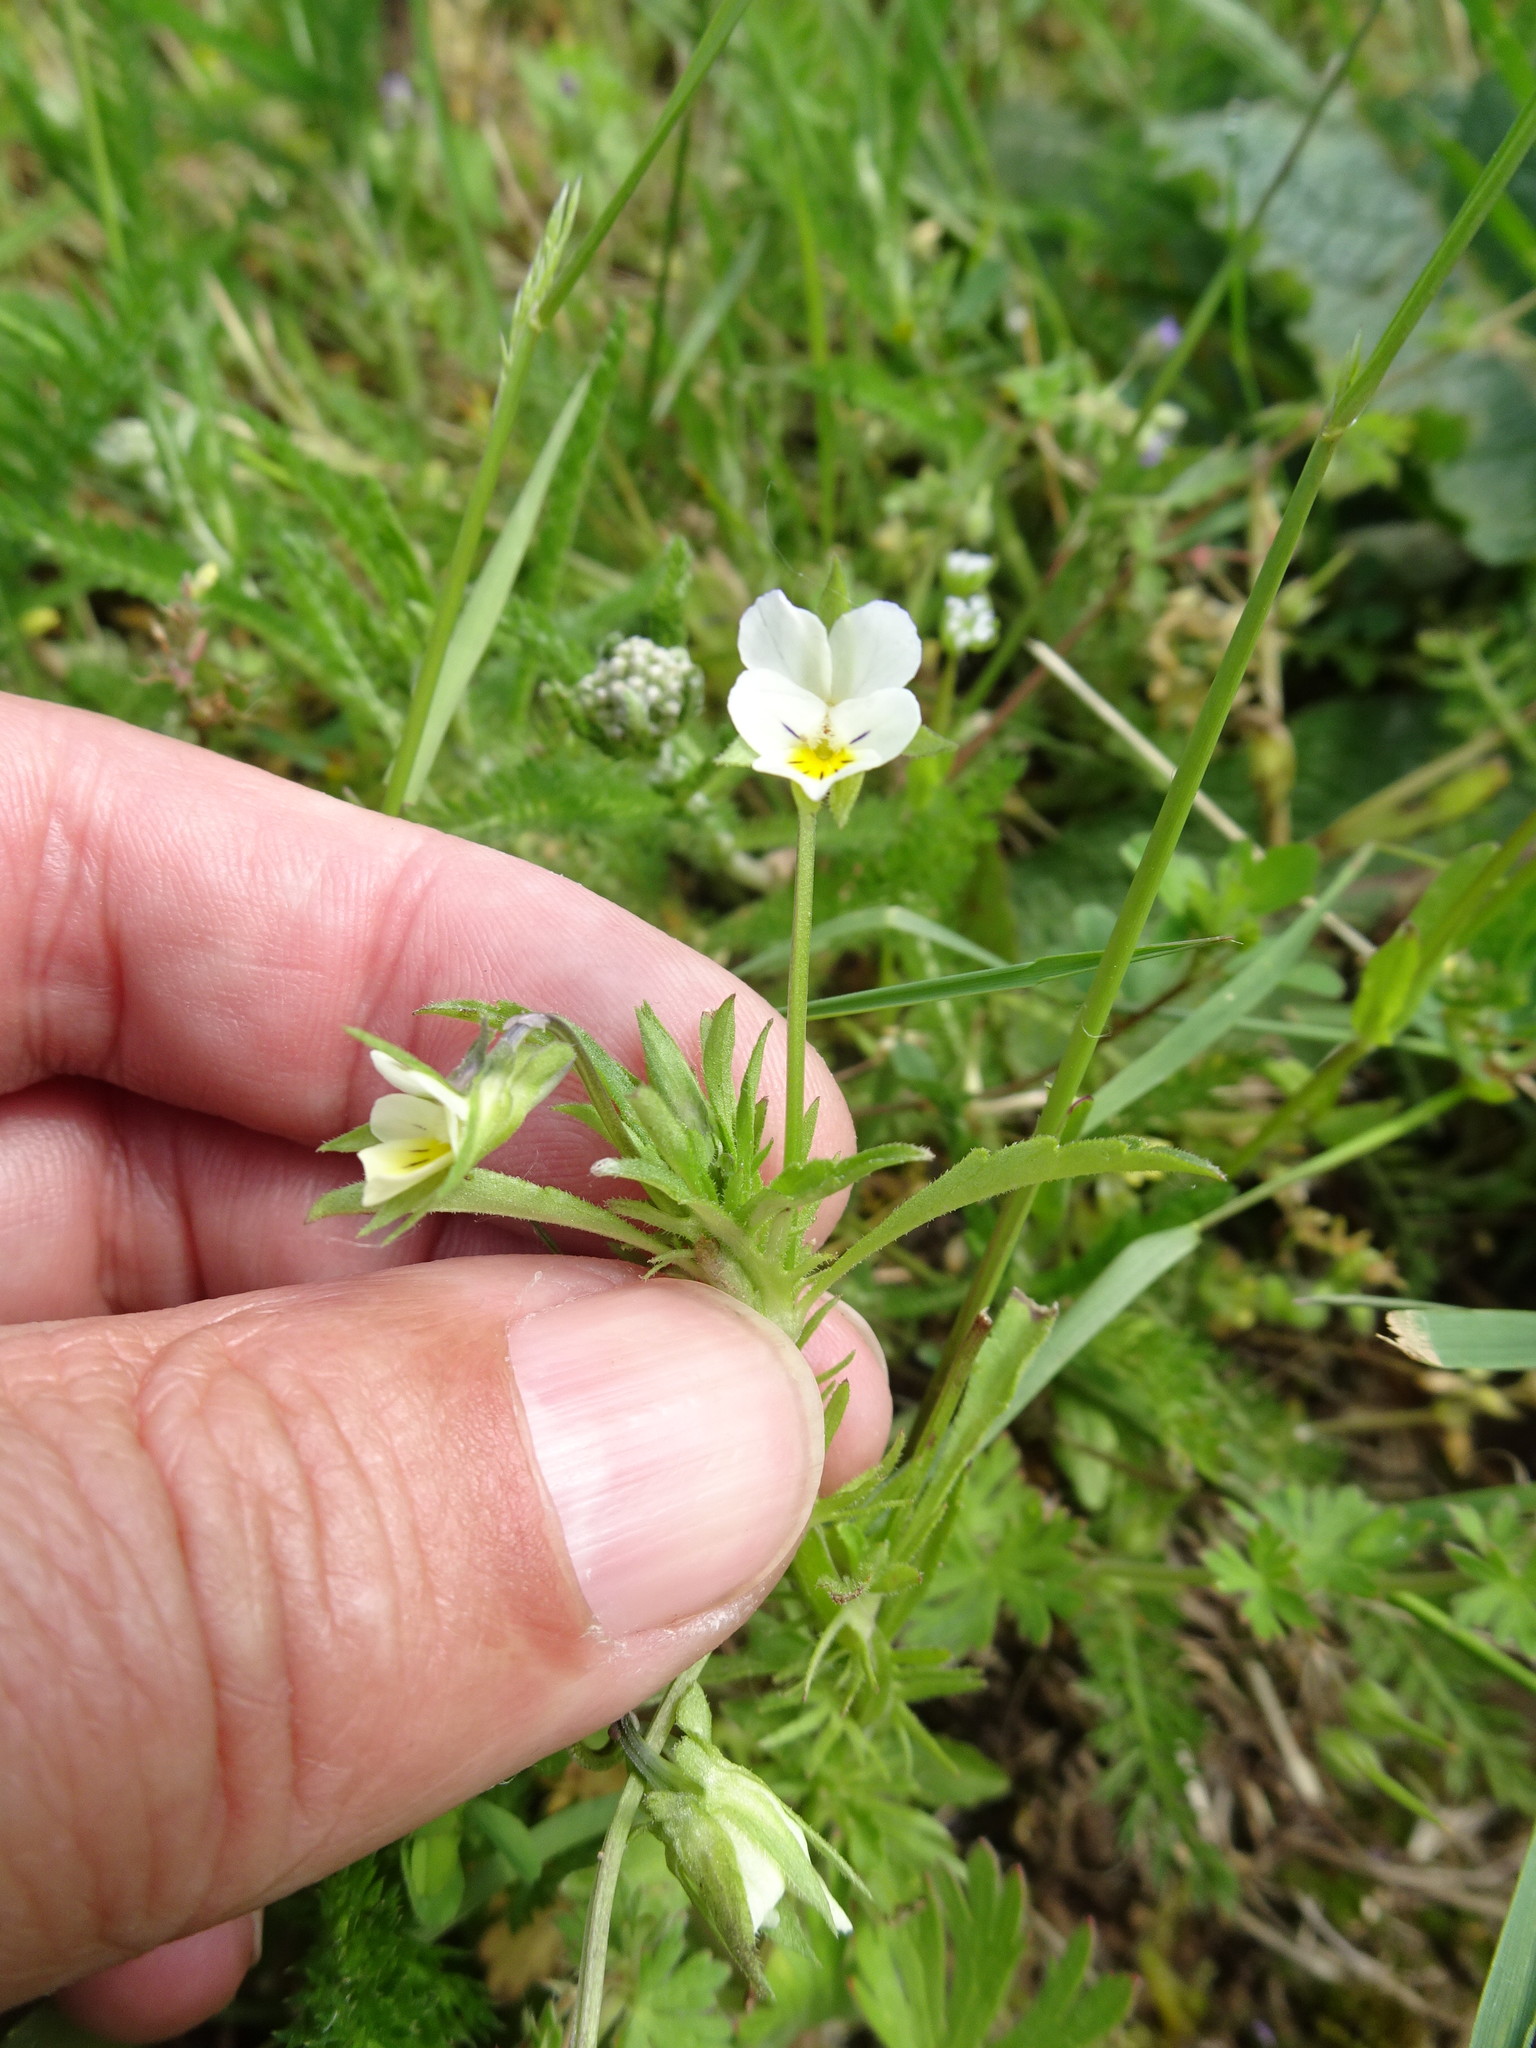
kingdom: Plantae
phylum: Tracheophyta
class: Magnoliopsida
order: Malpighiales
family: Violaceae
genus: Viola
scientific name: Viola arvensis
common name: Field pansy
